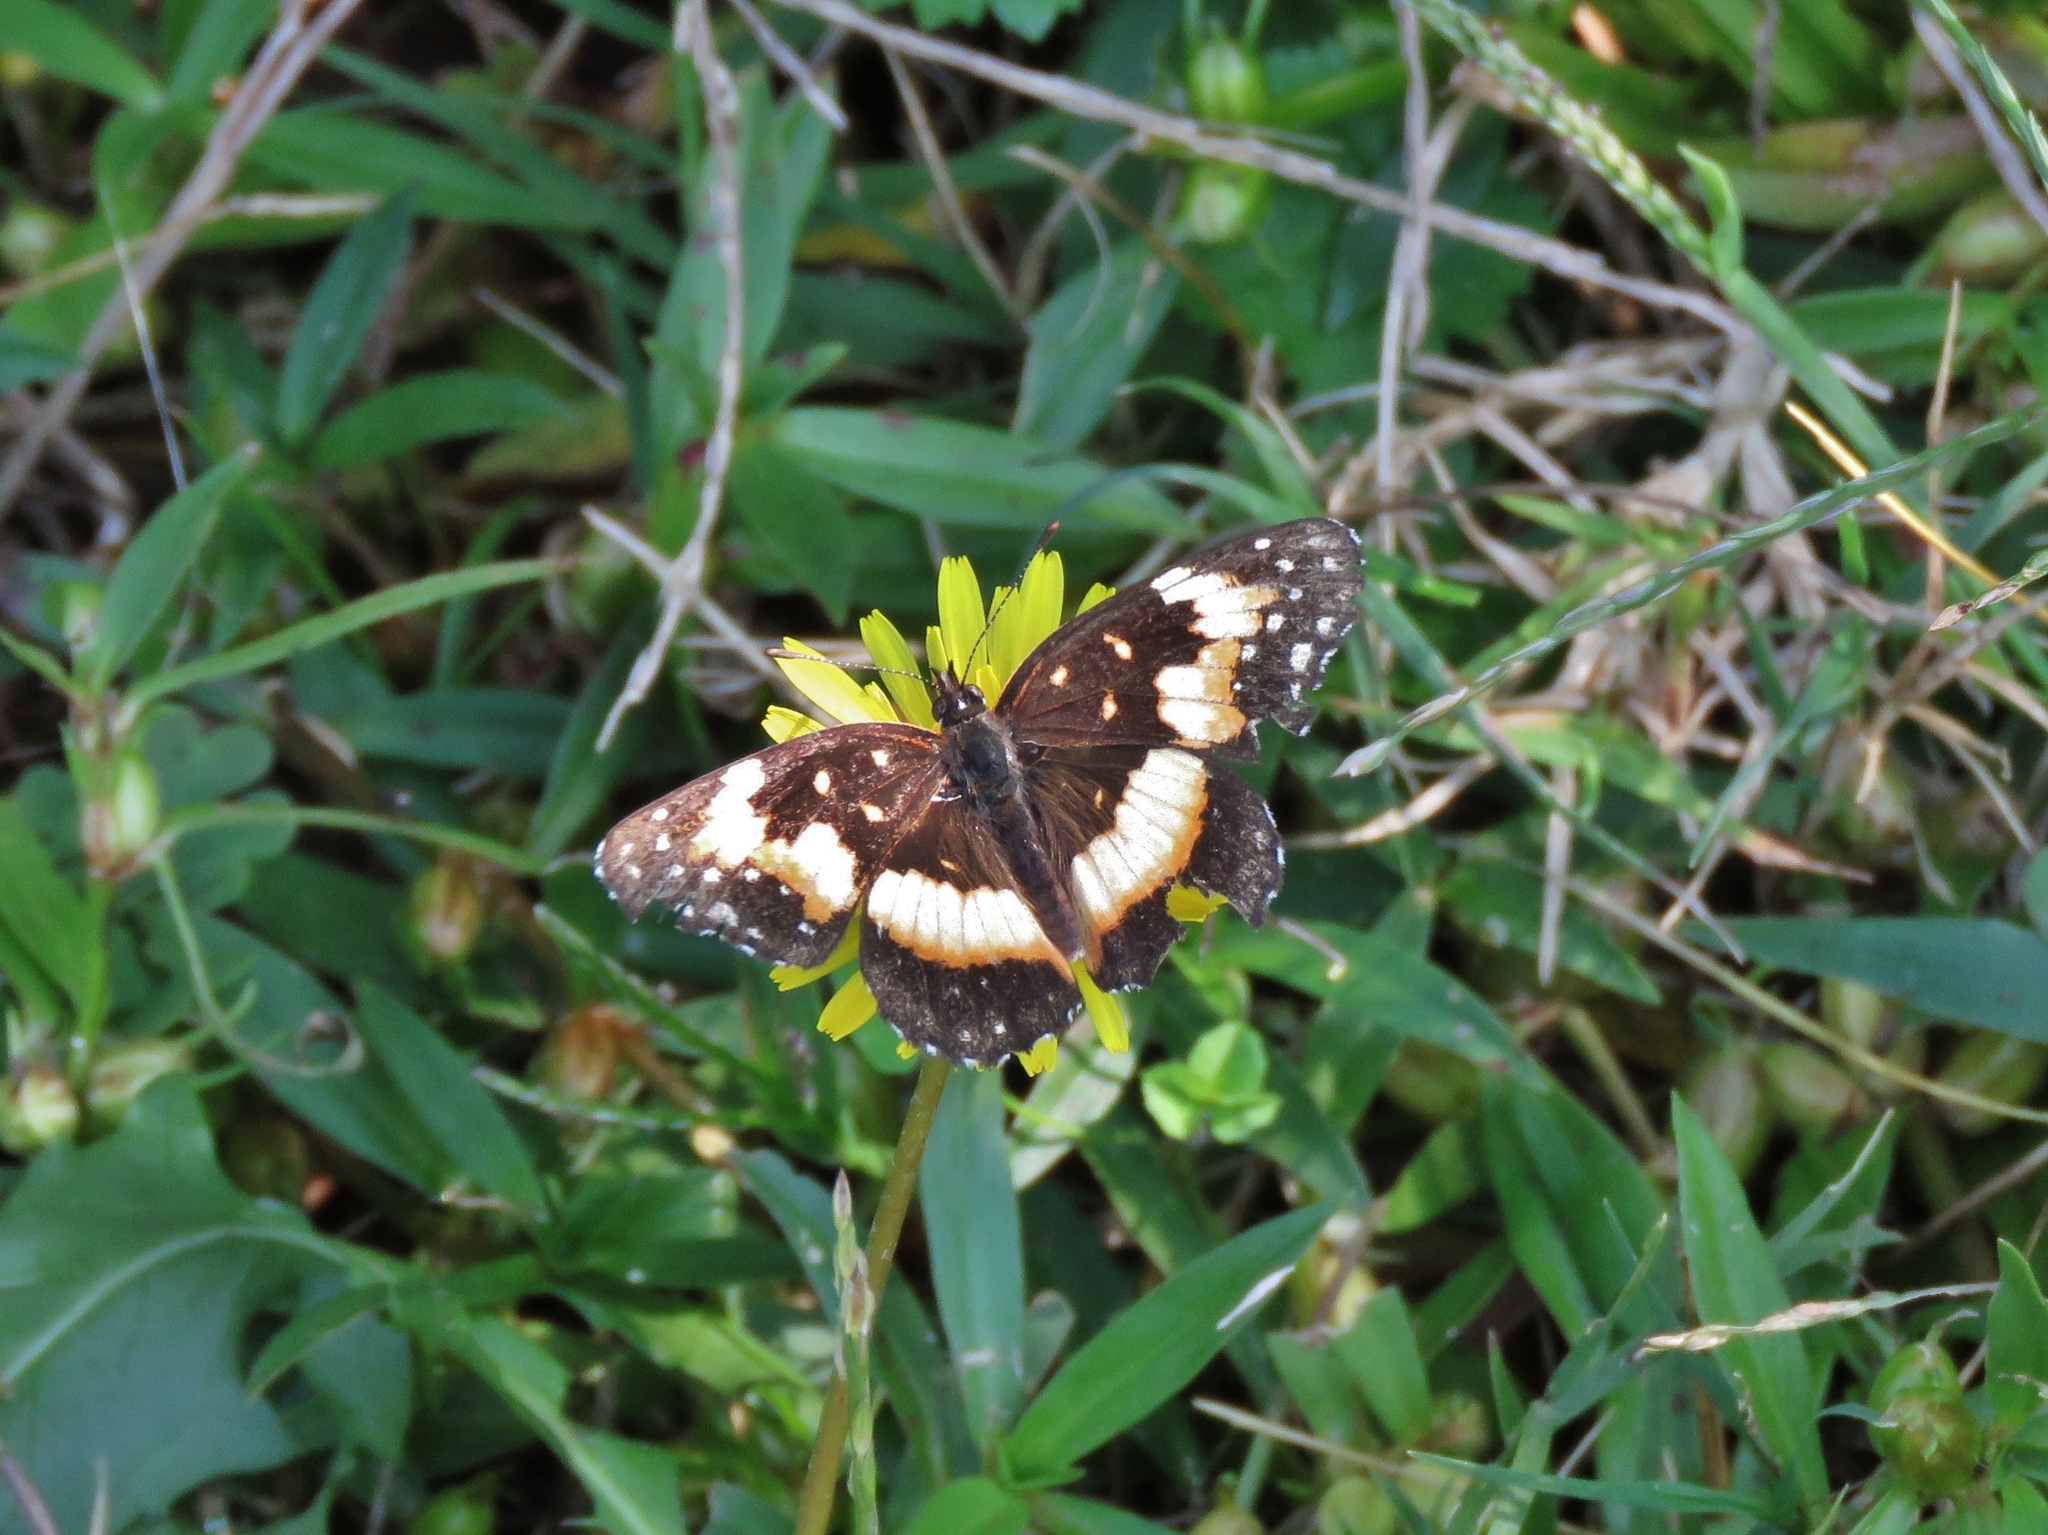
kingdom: Animalia
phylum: Arthropoda
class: Insecta
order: Lepidoptera
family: Nymphalidae
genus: Chlosyne
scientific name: Chlosyne lacinia
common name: Bordered patch
